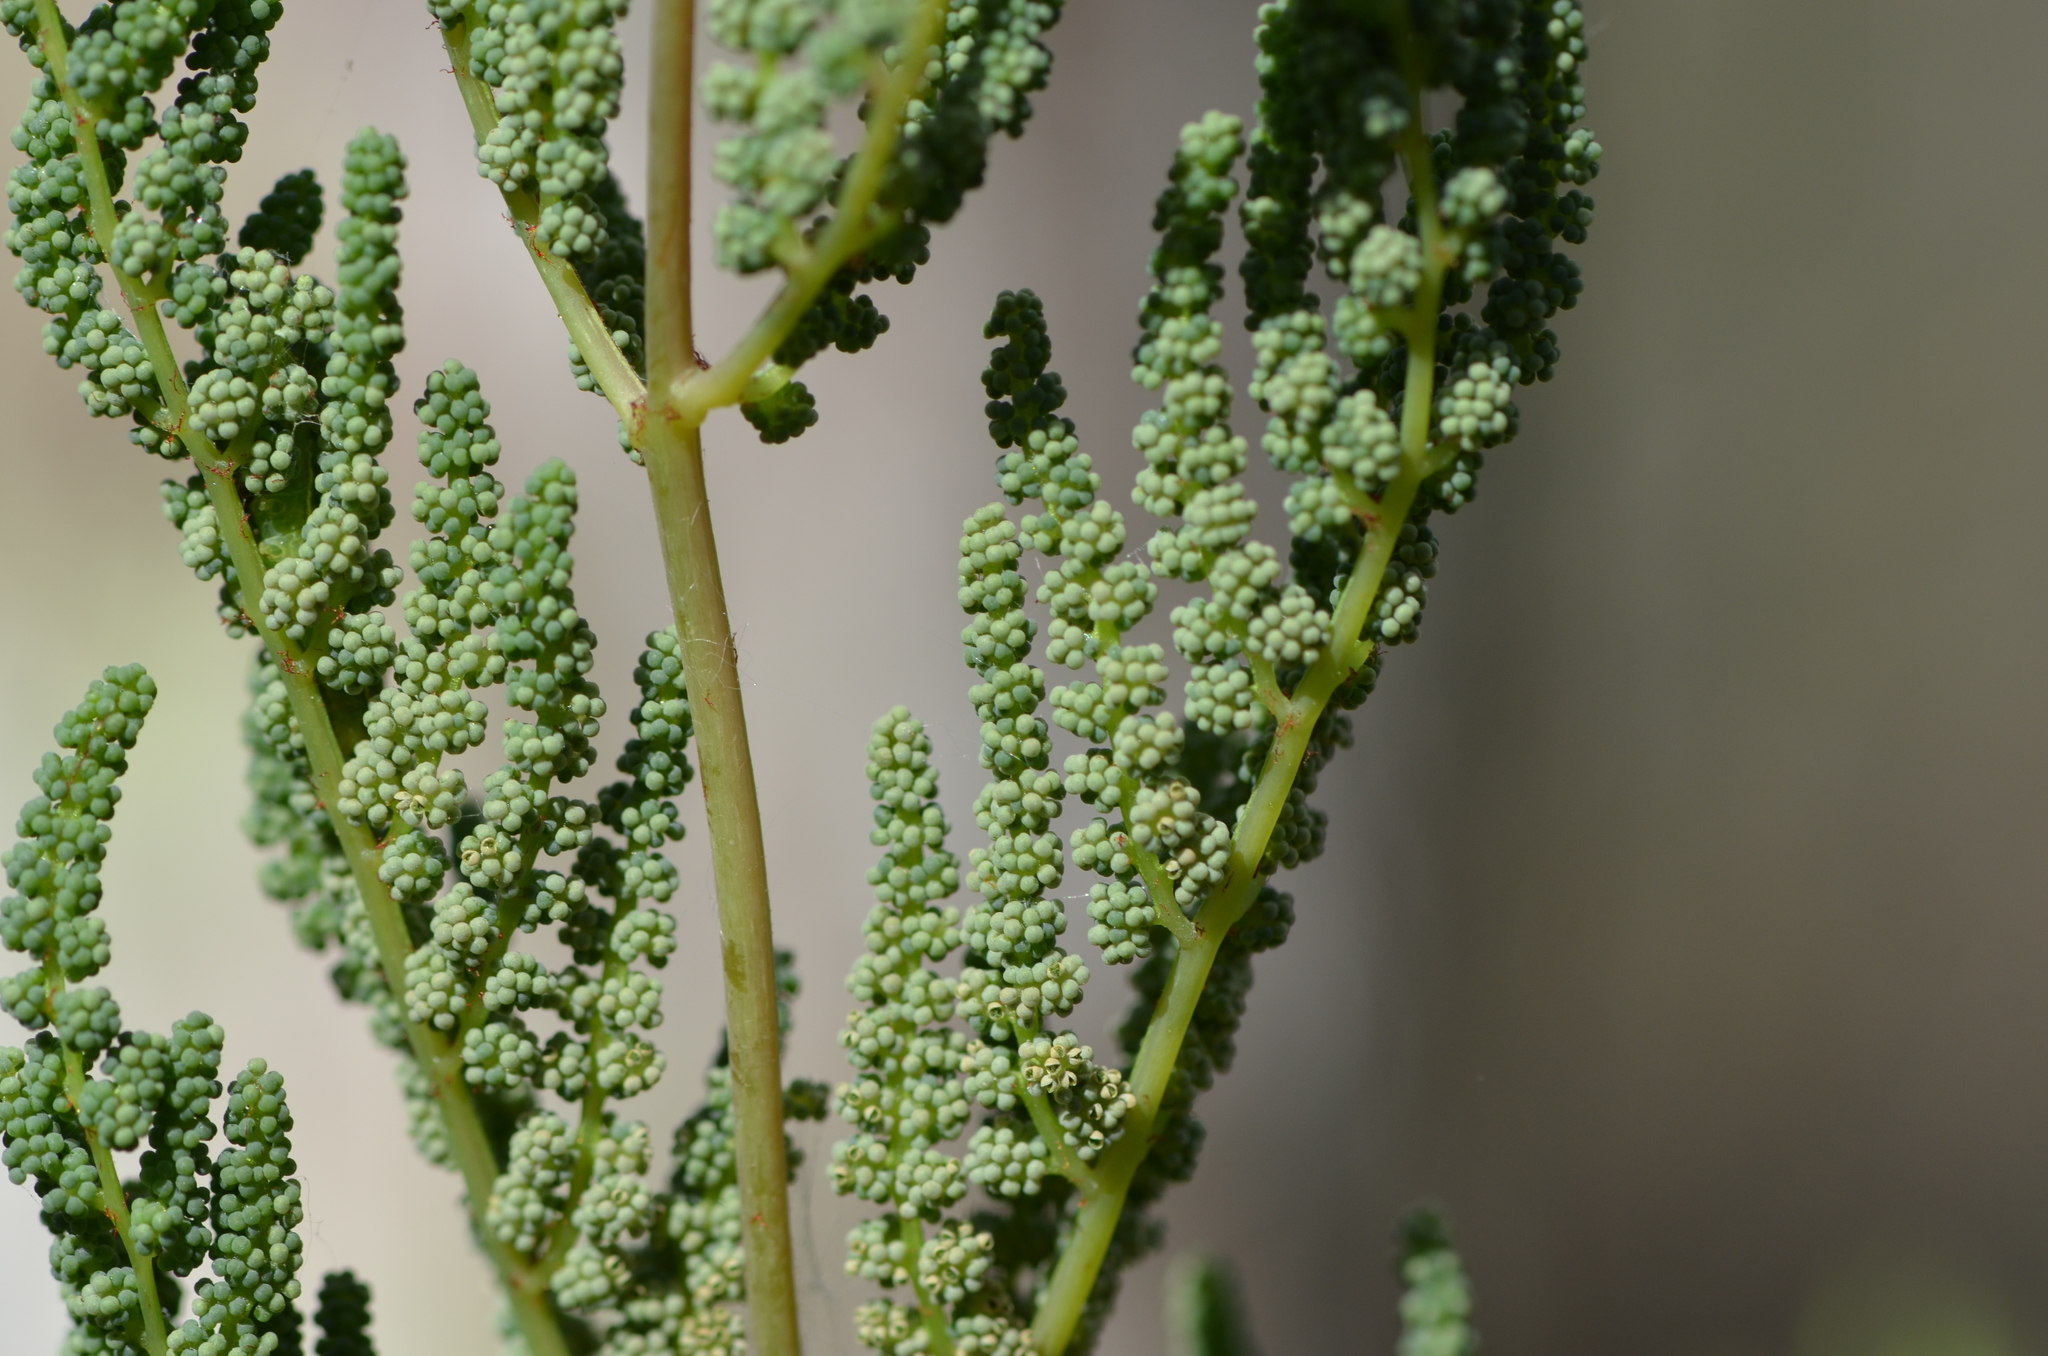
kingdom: Plantae
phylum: Tracheophyta
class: Polypodiopsida
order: Osmundales
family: Osmundaceae
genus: Osmunda
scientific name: Osmunda spectabilis
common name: American royal fern
